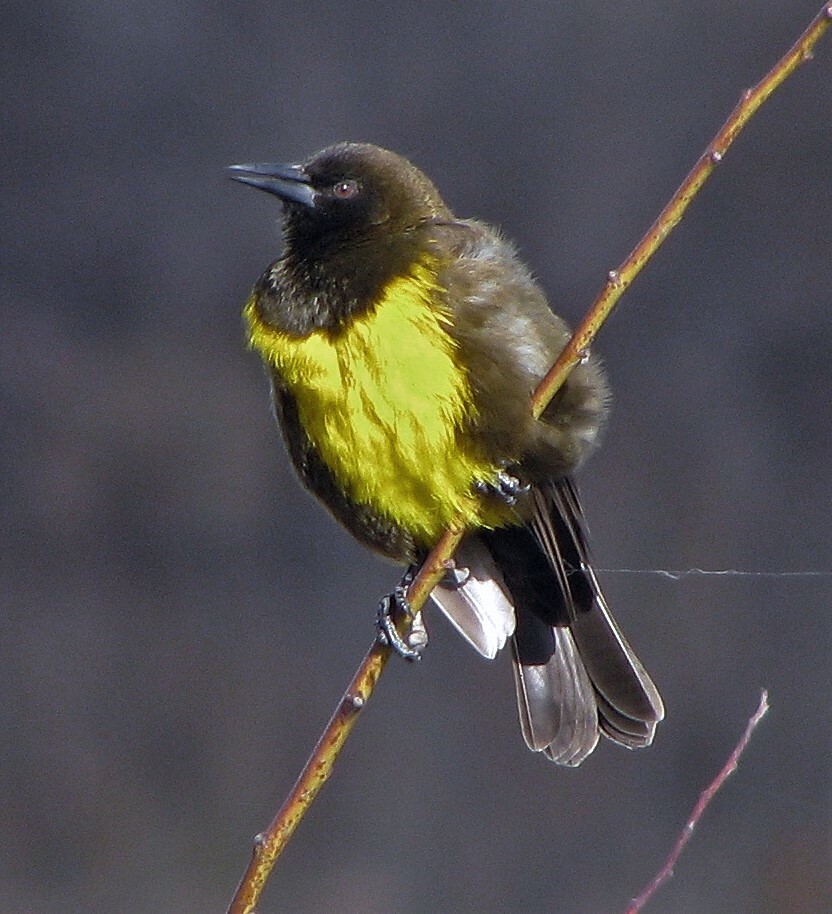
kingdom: Animalia
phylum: Chordata
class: Aves
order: Passeriformes
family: Icteridae
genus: Pseudoleistes
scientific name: Pseudoleistes virescens
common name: Brown-and-yellow marshbird
